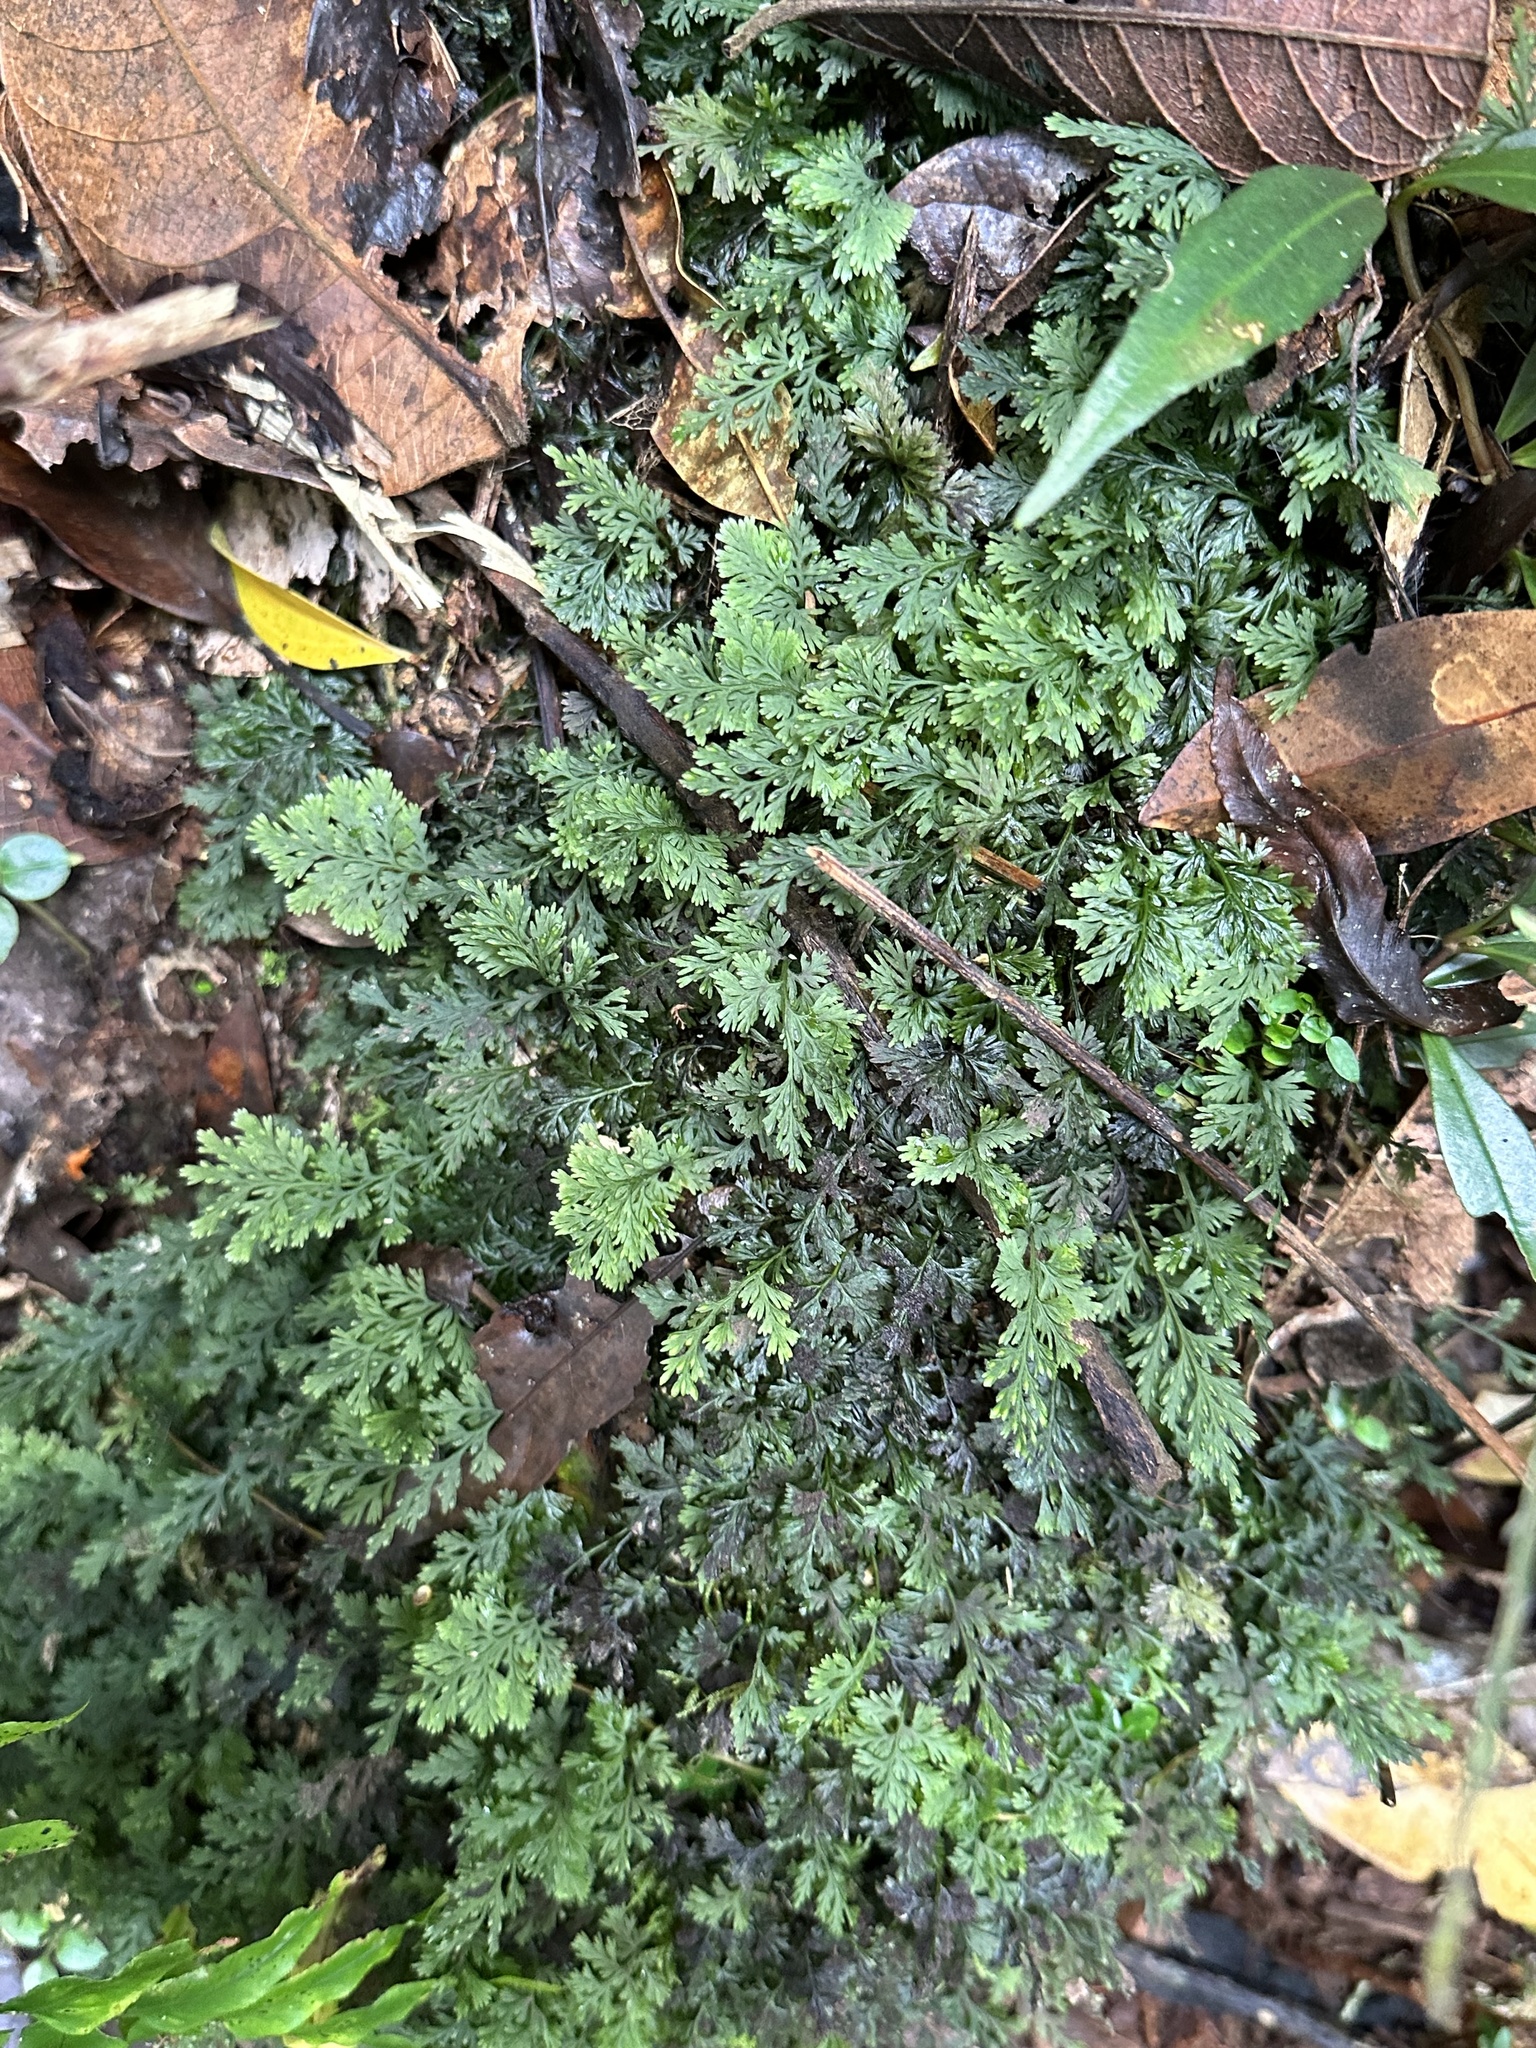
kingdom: Plantae
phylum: Tracheophyta
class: Lycopodiopsida
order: Selaginellales
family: Selaginellaceae
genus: Selaginella
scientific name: Selaginella longipinna
